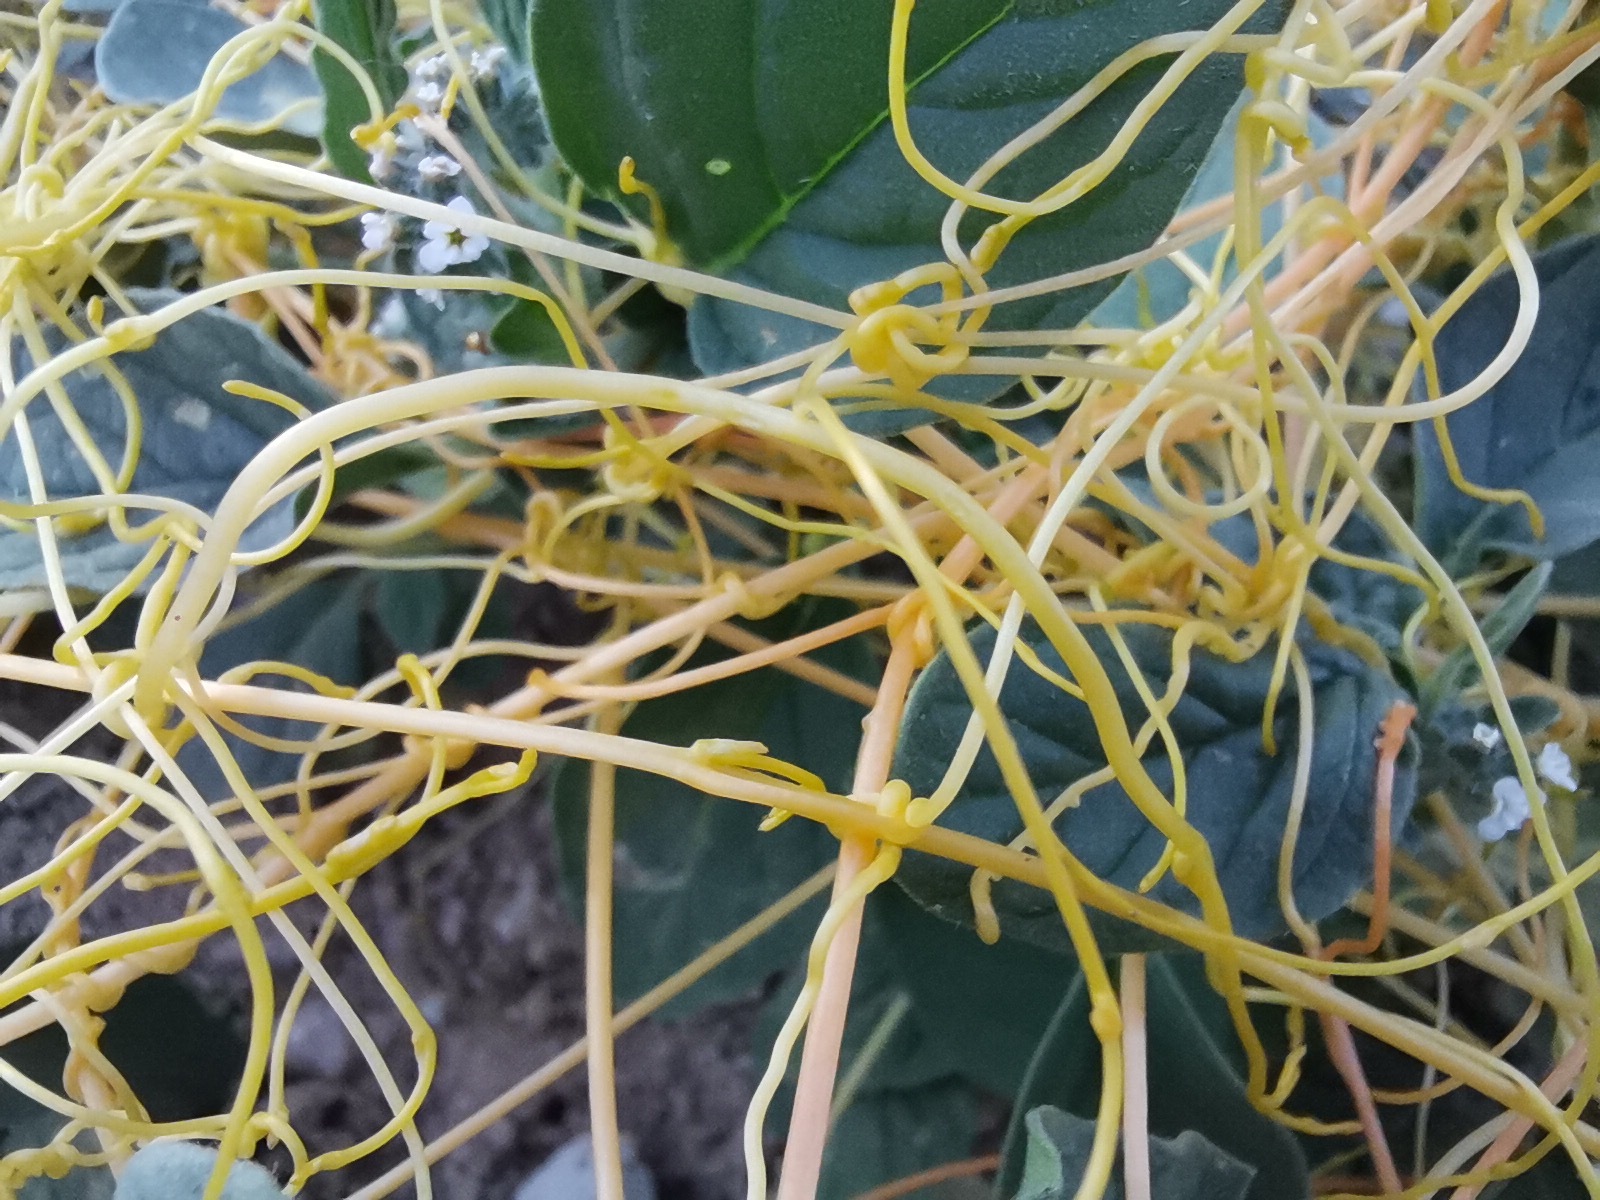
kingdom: Plantae
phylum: Tracheophyta
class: Magnoliopsida
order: Solanales
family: Convolvulaceae
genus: Cuscuta
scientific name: Cuscuta campestris
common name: Yellow dodder
